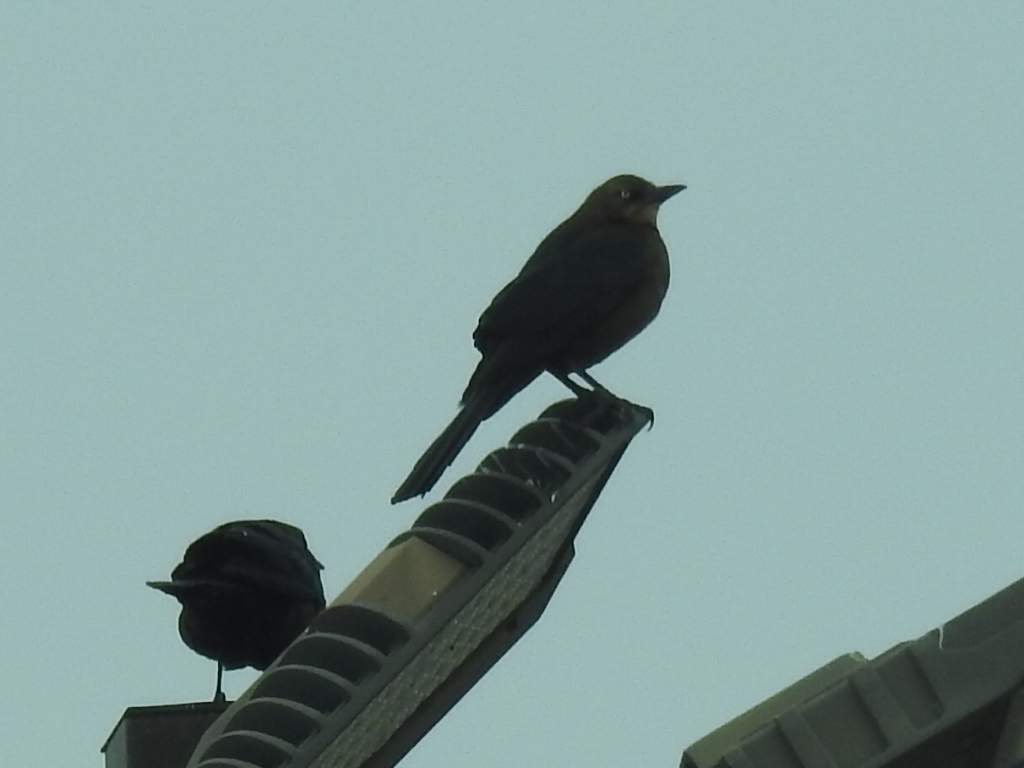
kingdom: Animalia
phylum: Chordata
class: Aves
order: Passeriformes
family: Icteridae
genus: Quiscalus
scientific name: Quiscalus mexicanus
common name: Great-tailed grackle
